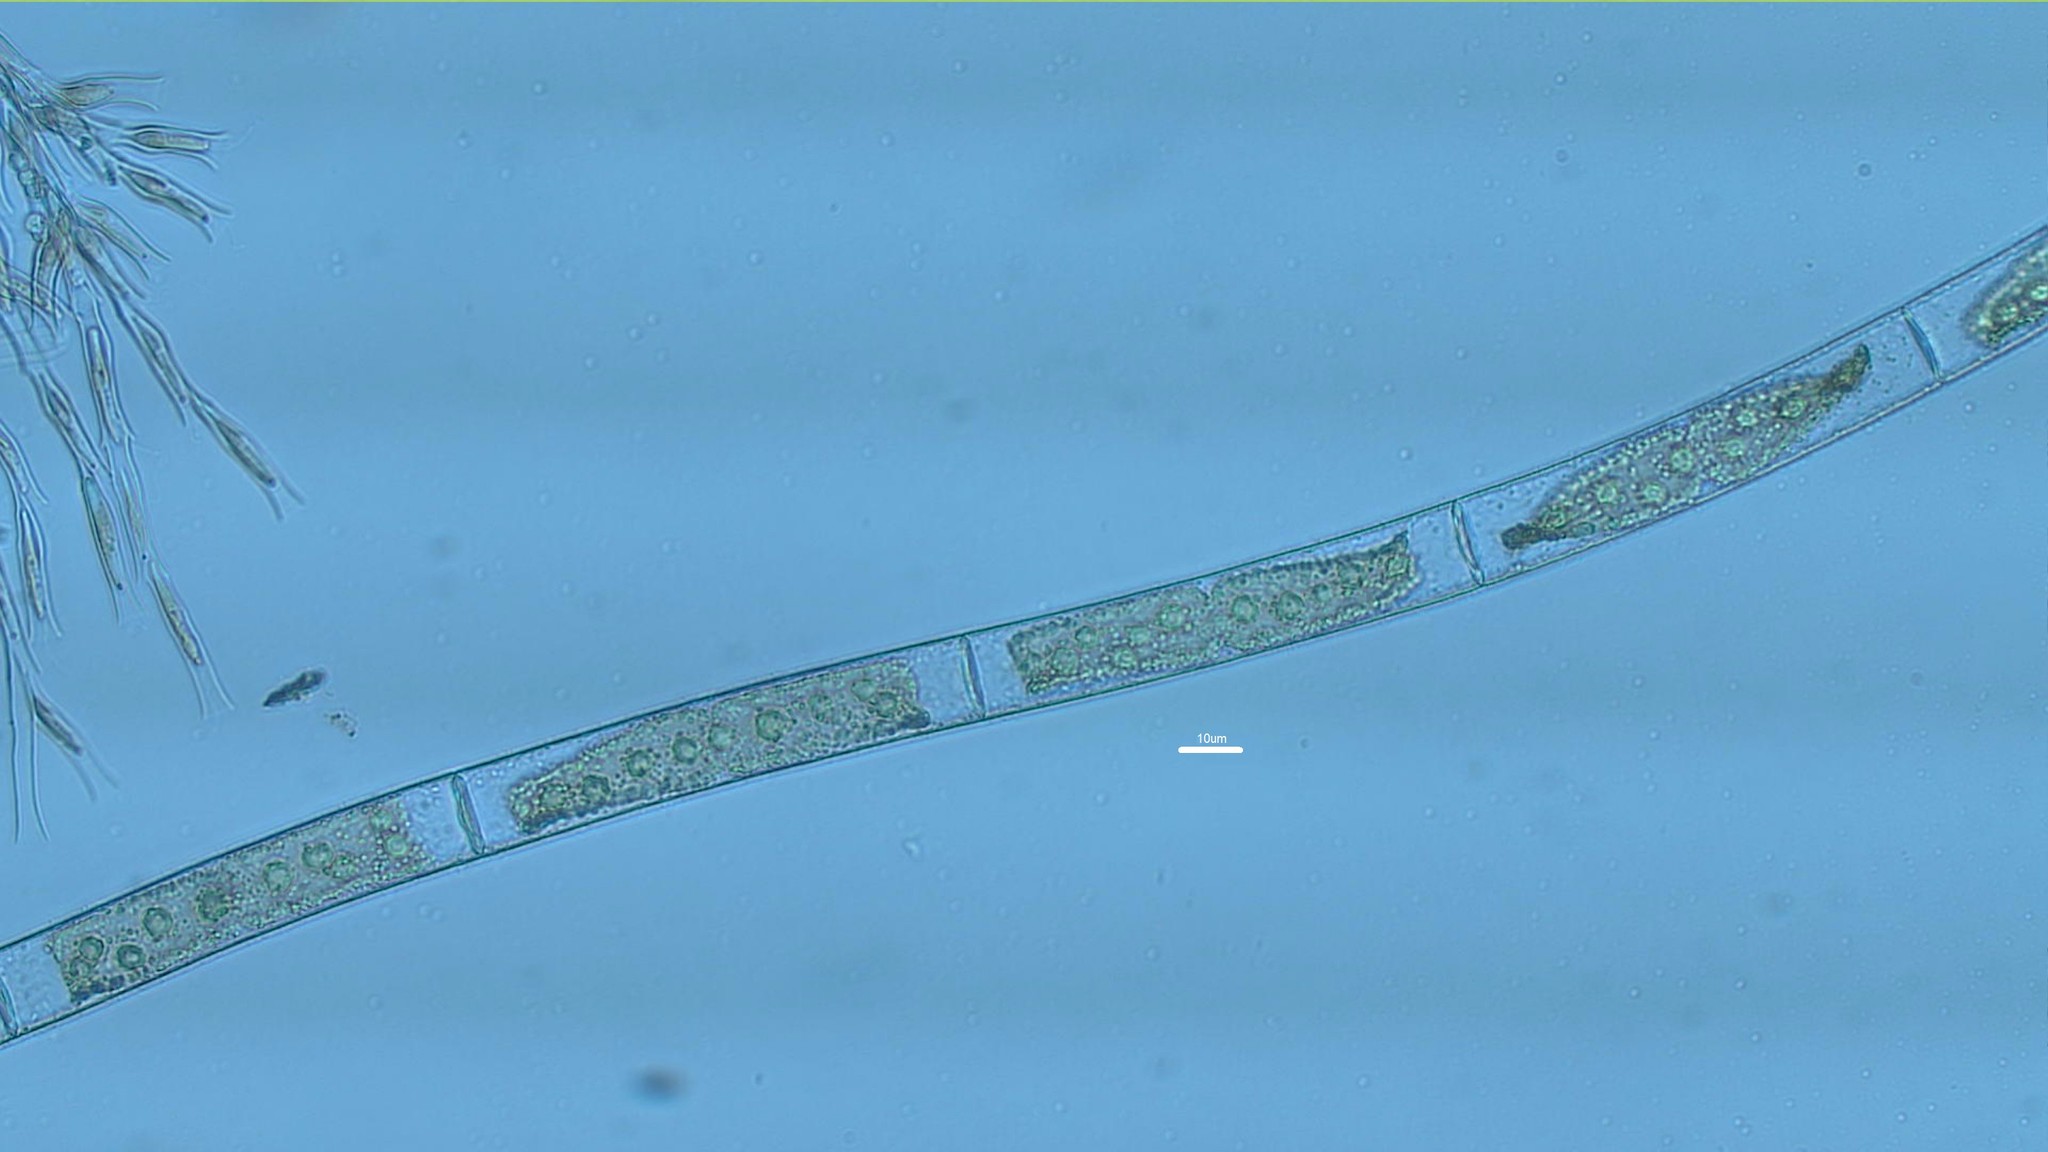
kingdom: Plantae
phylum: Charophyta
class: Zygnematophyceae
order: Zygnematales
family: Zygnemataceae
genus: Mougeotia
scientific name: Mougeotia
